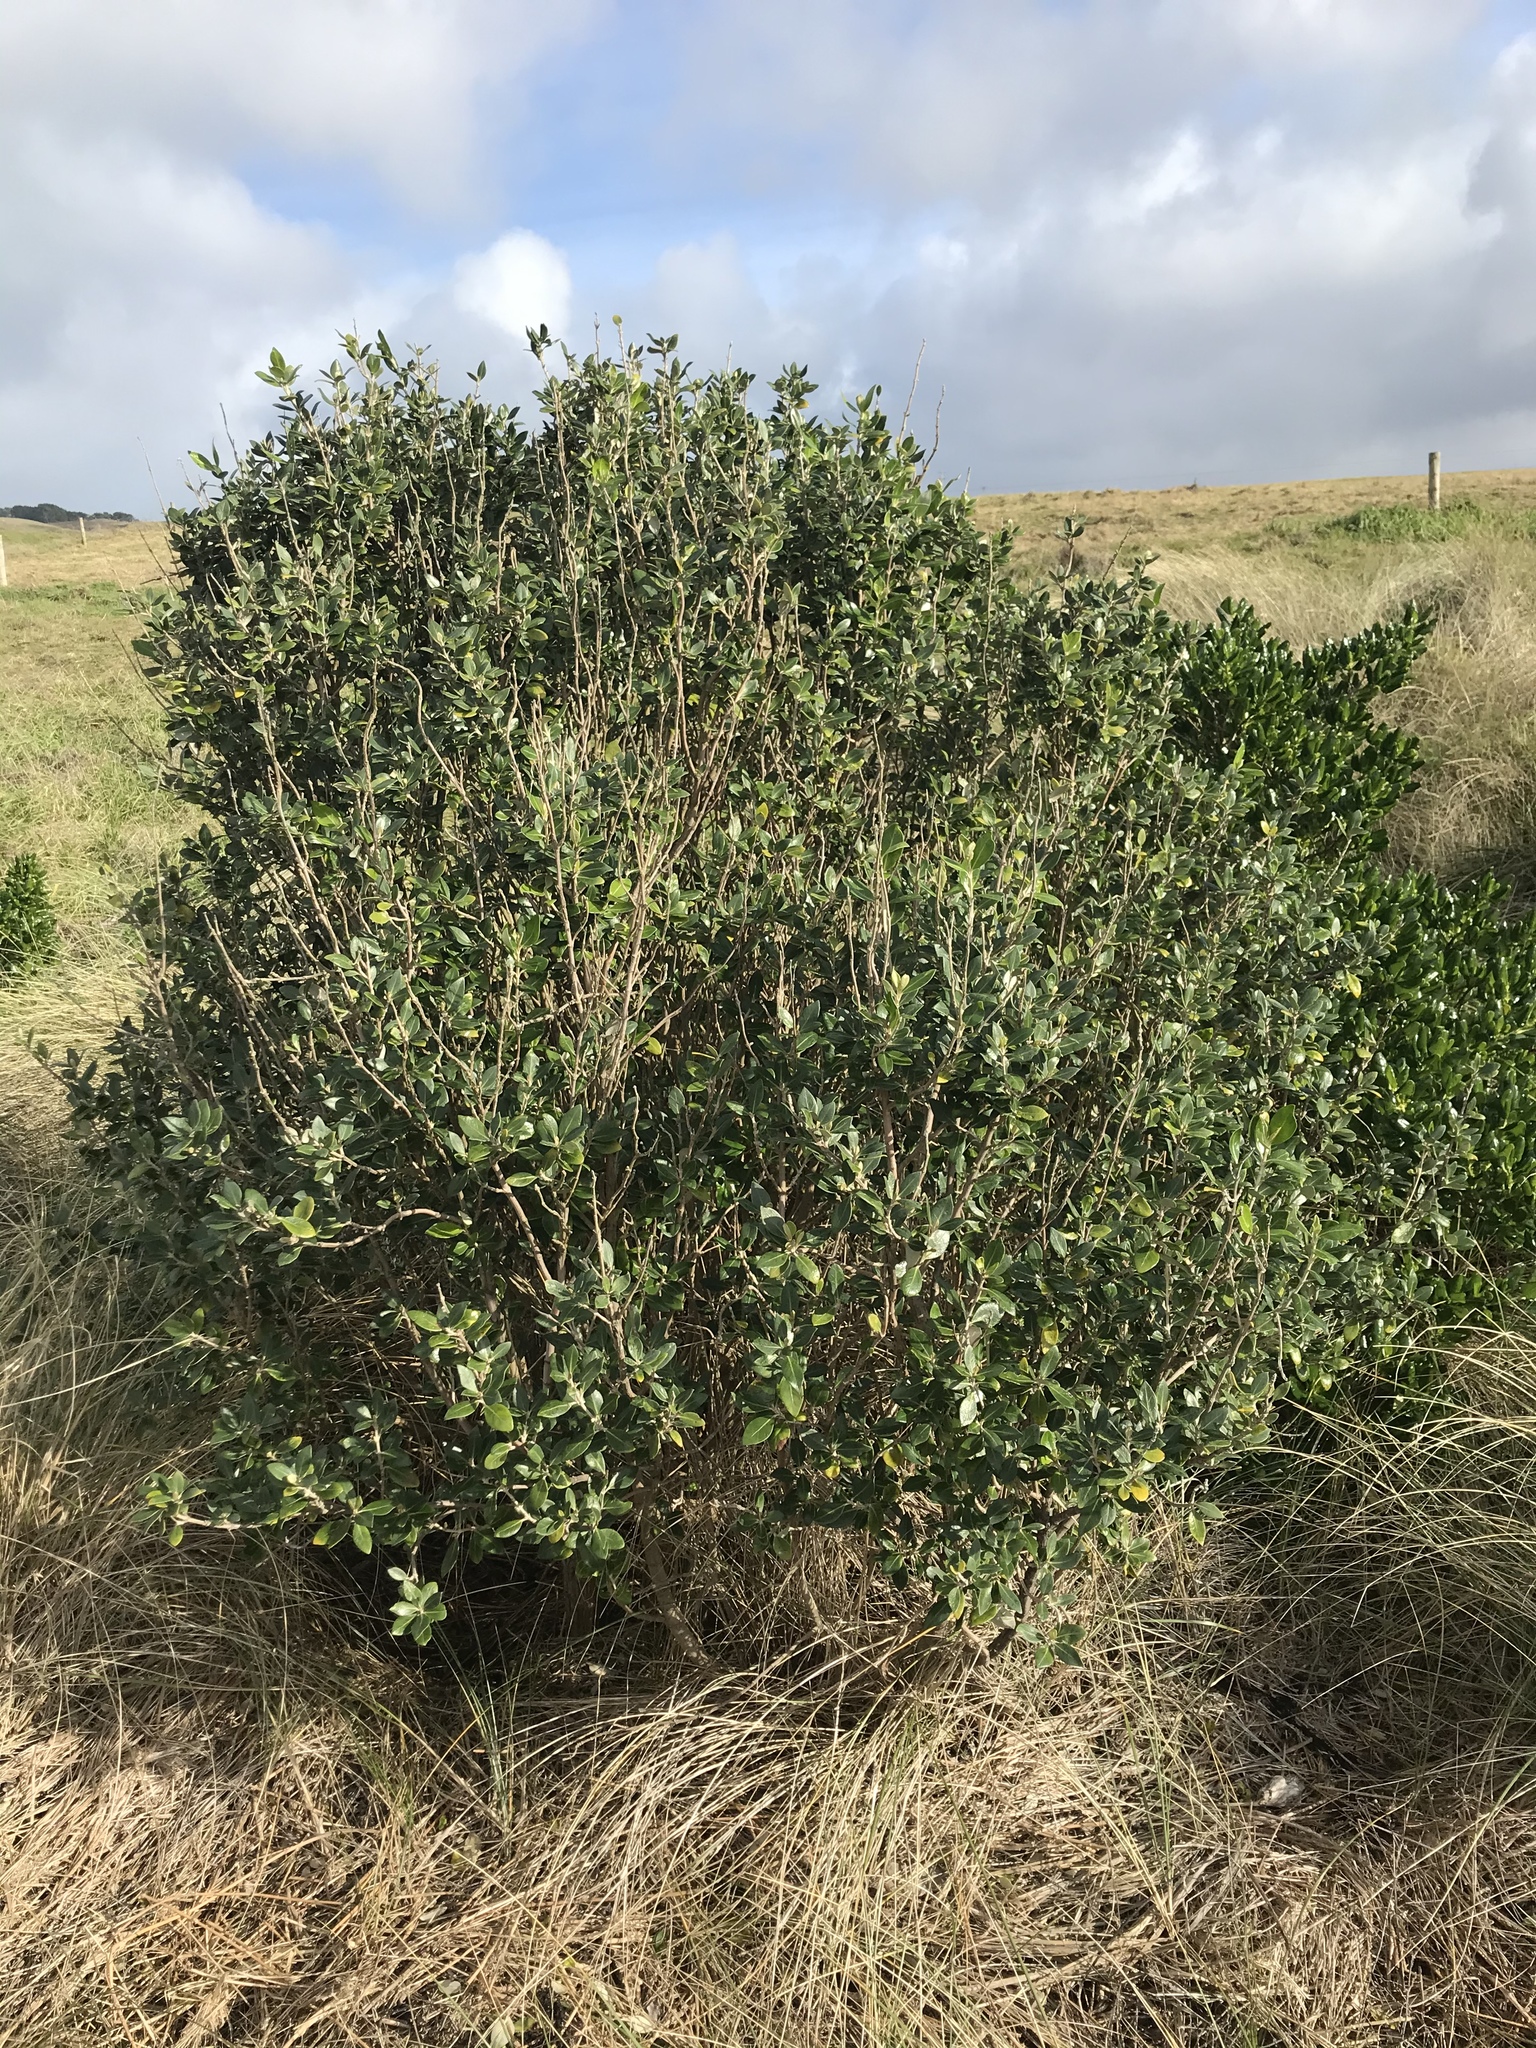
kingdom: Plantae
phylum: Tracheophyta
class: Magnoliopsida
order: Asterales
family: Asteraceae
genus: Olearia
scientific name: Olearia traversiorum
